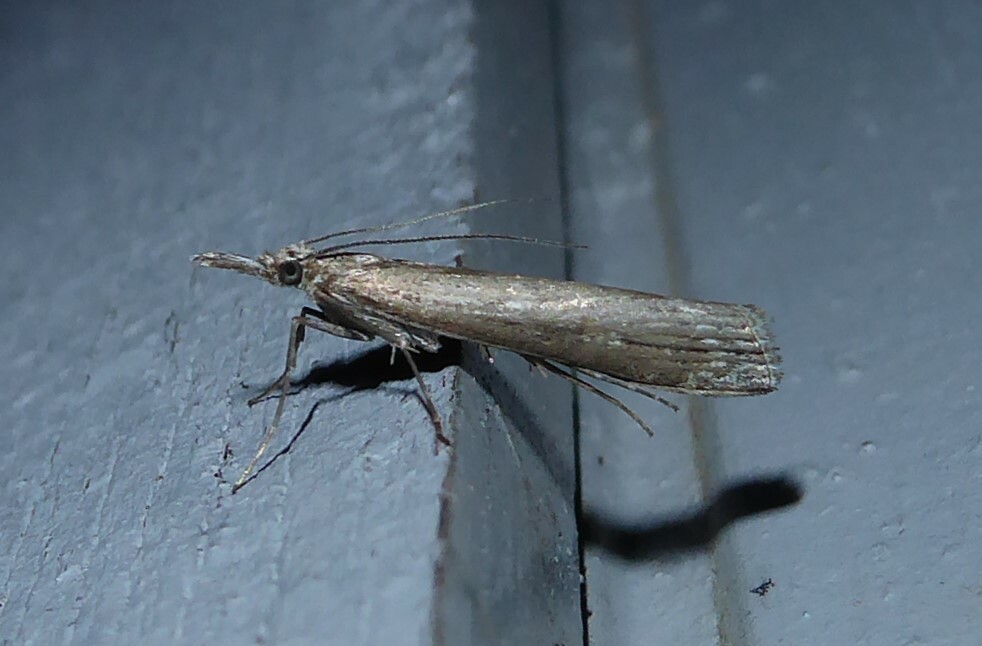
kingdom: Animalia
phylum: Arthropoda
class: Insecta
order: Lepidoptera
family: Crambidae
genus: Orocrambus
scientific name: Orocrambus cyclopicus
